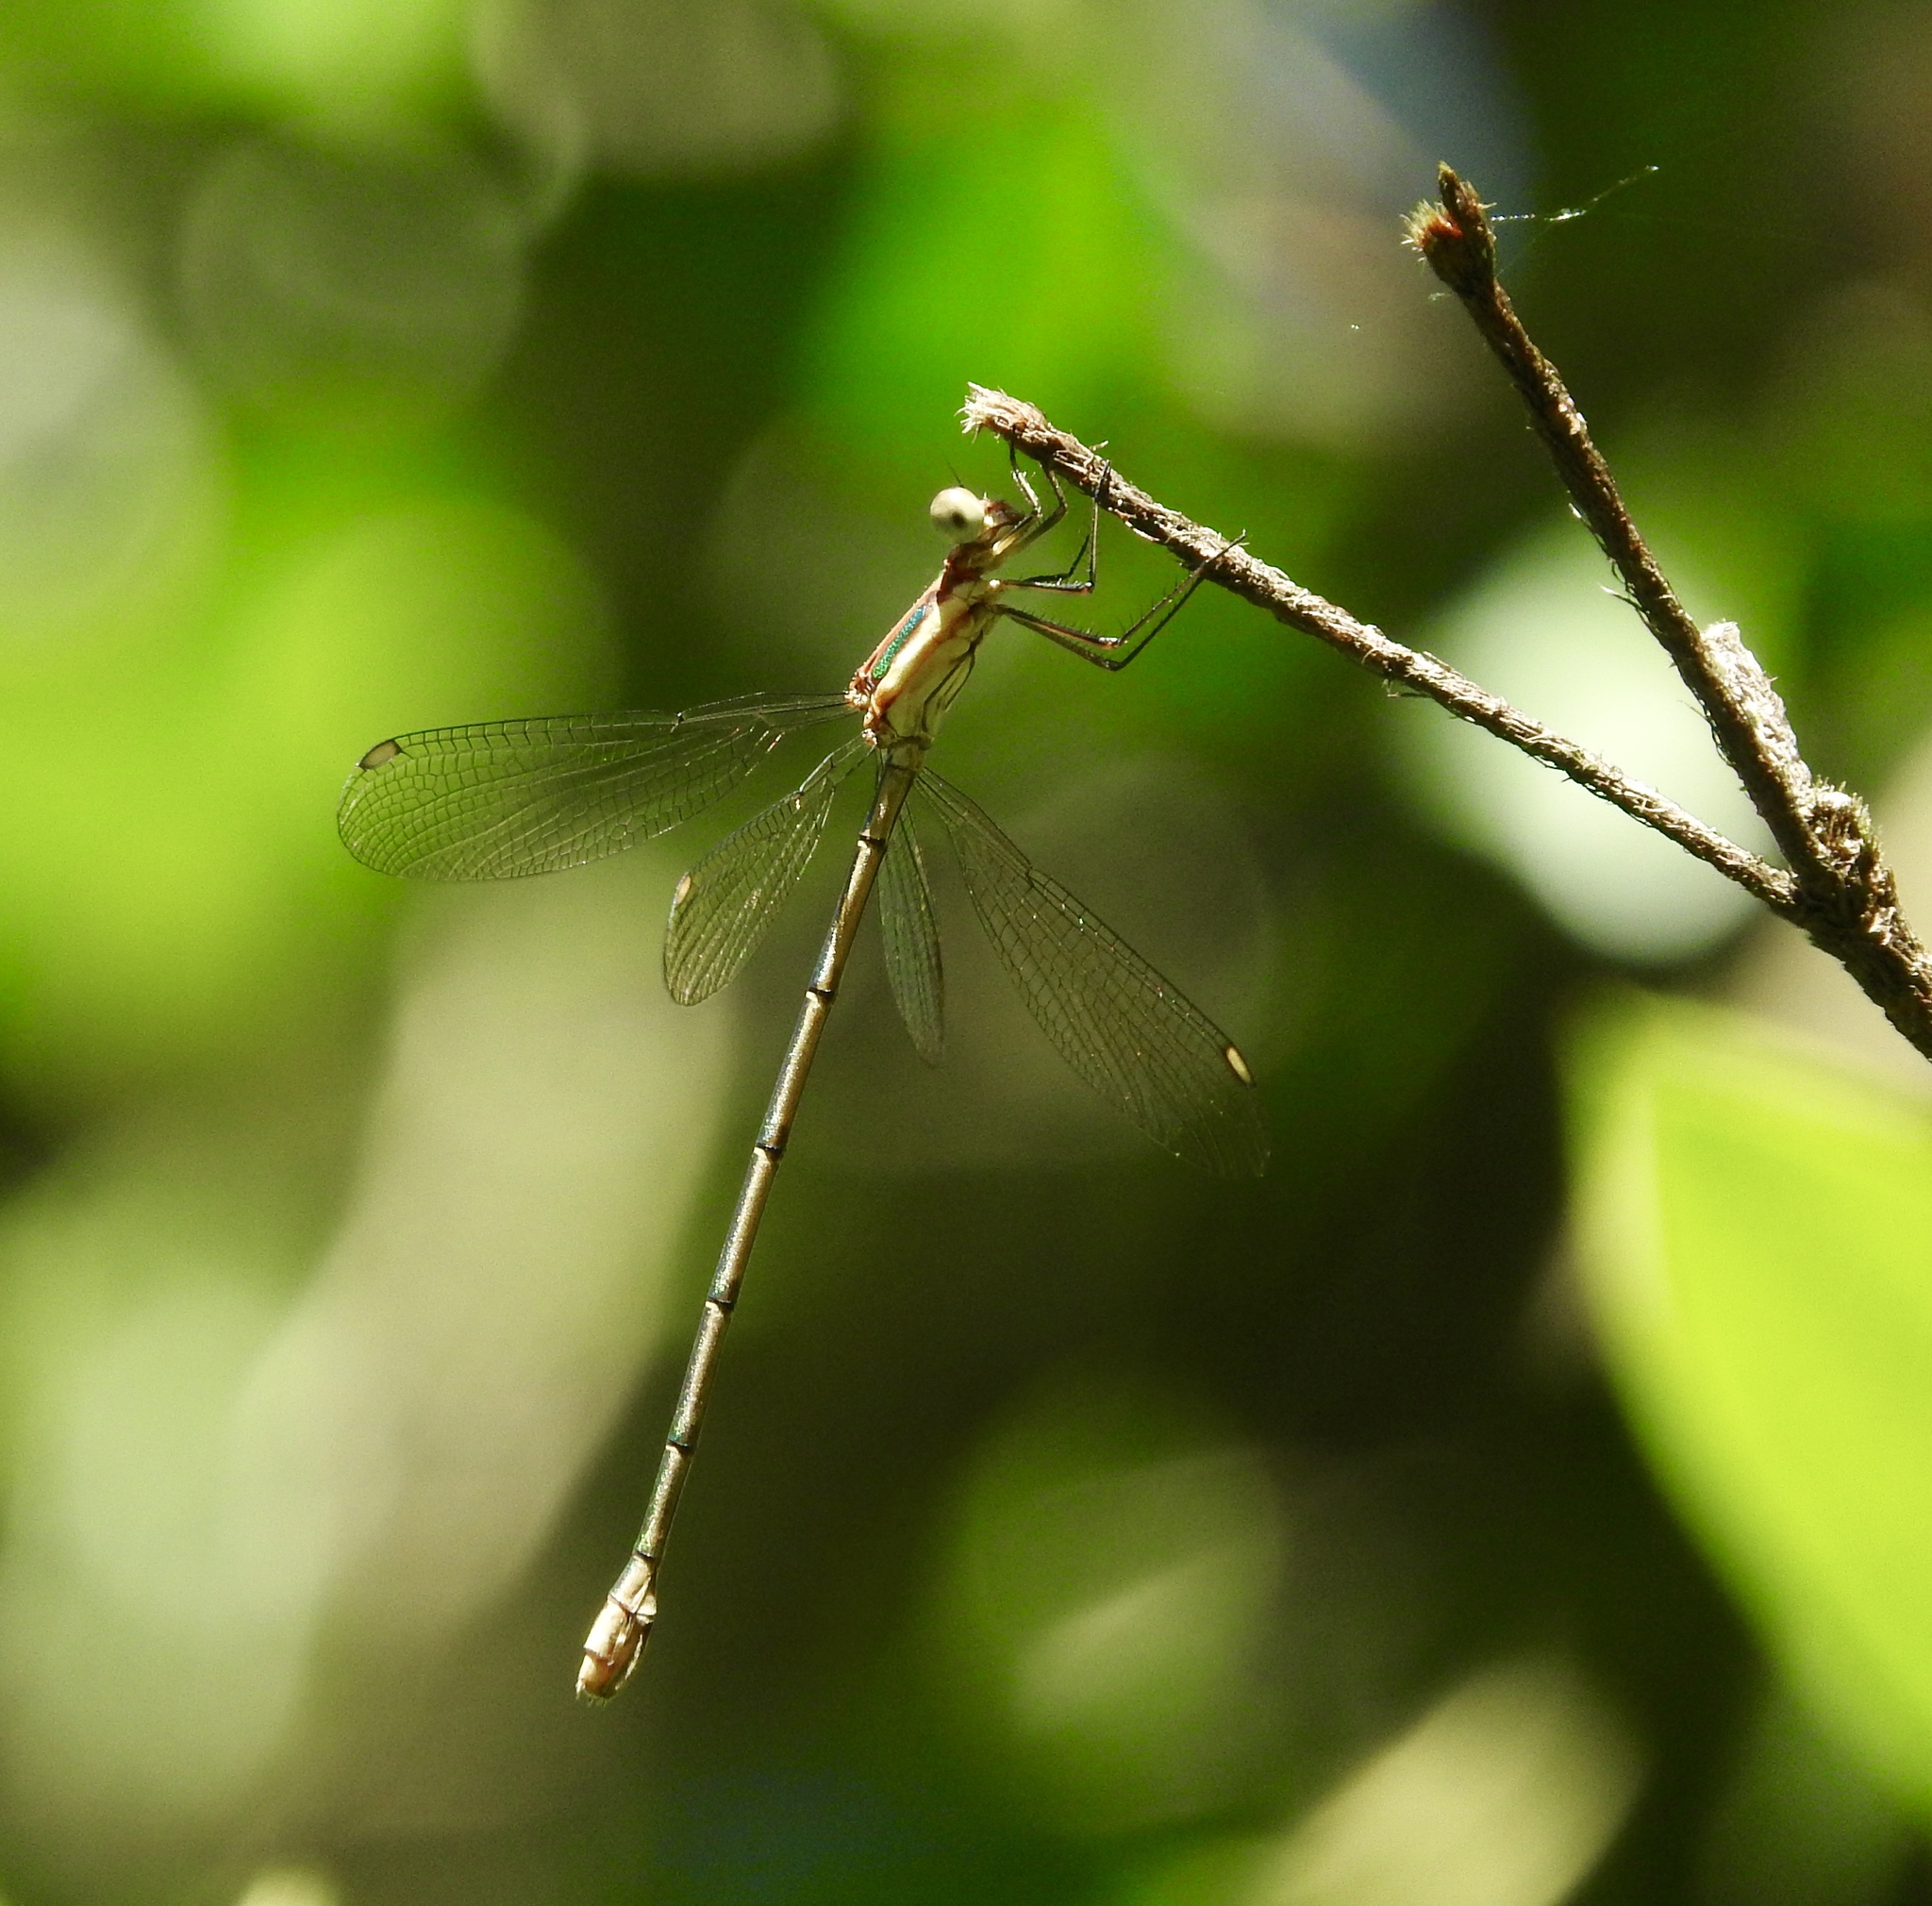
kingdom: Animalia
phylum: Arthropoda
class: Insecta
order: Odonata
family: Lestidae
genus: Lestes
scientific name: Lestes virgatus
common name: Smoky spreadwing
